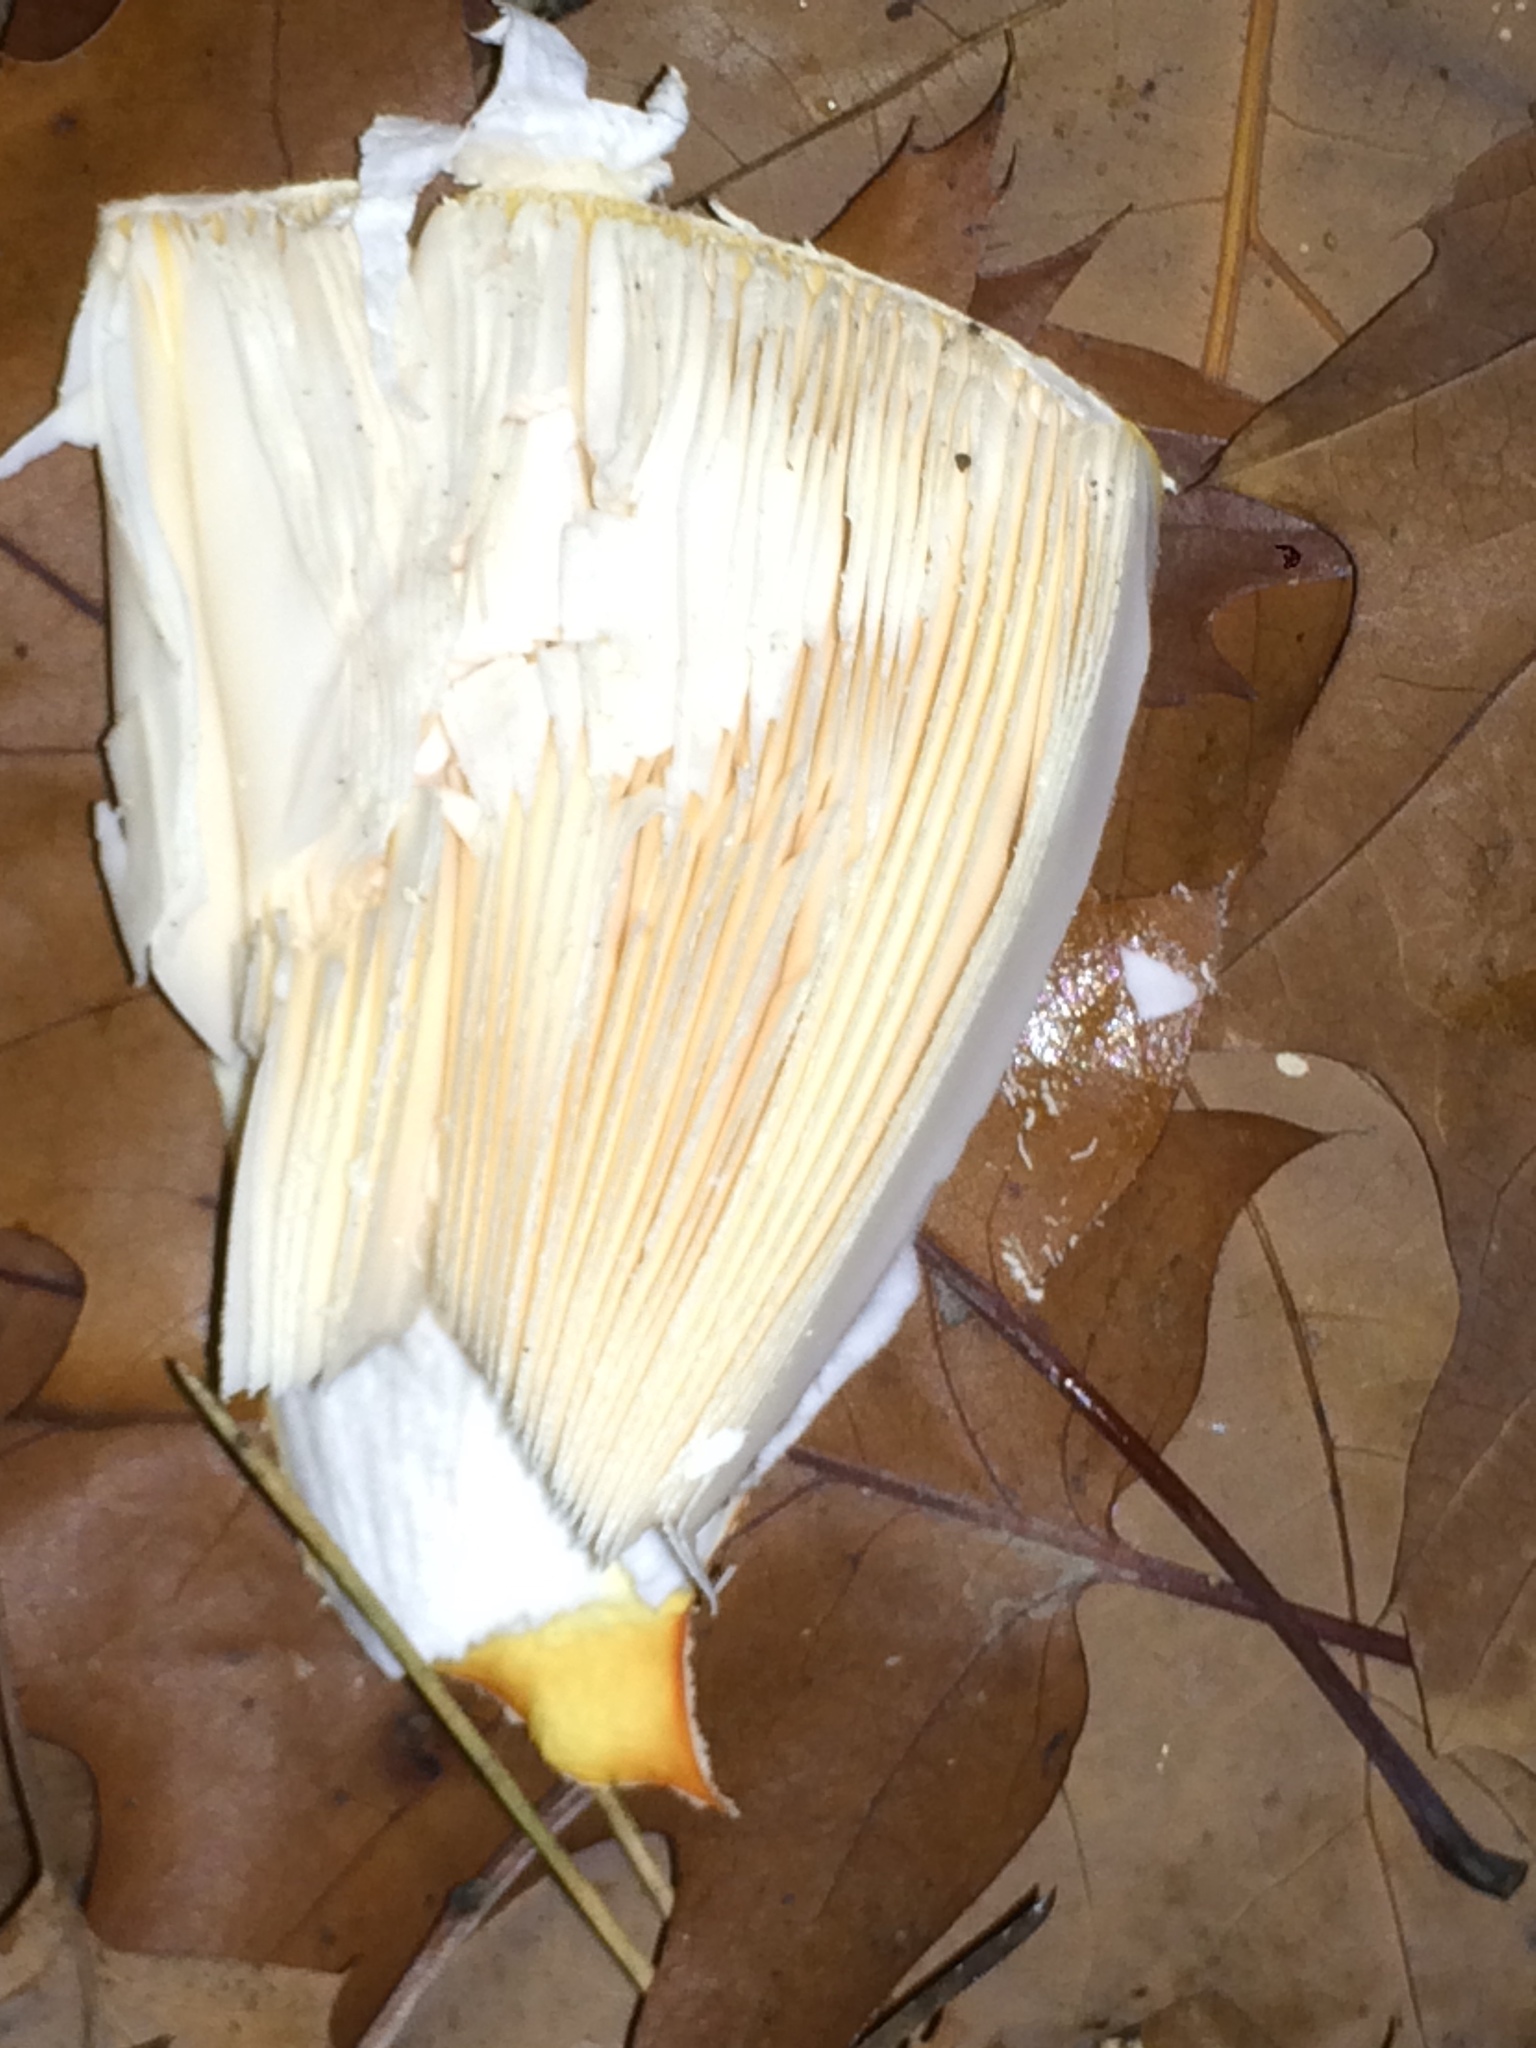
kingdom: Fungi
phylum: Basidiomycota
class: Agaricomycetes
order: Agaricales
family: Amanitaceae
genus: Amanita
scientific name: Amanita muscaria
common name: Fly agaric
